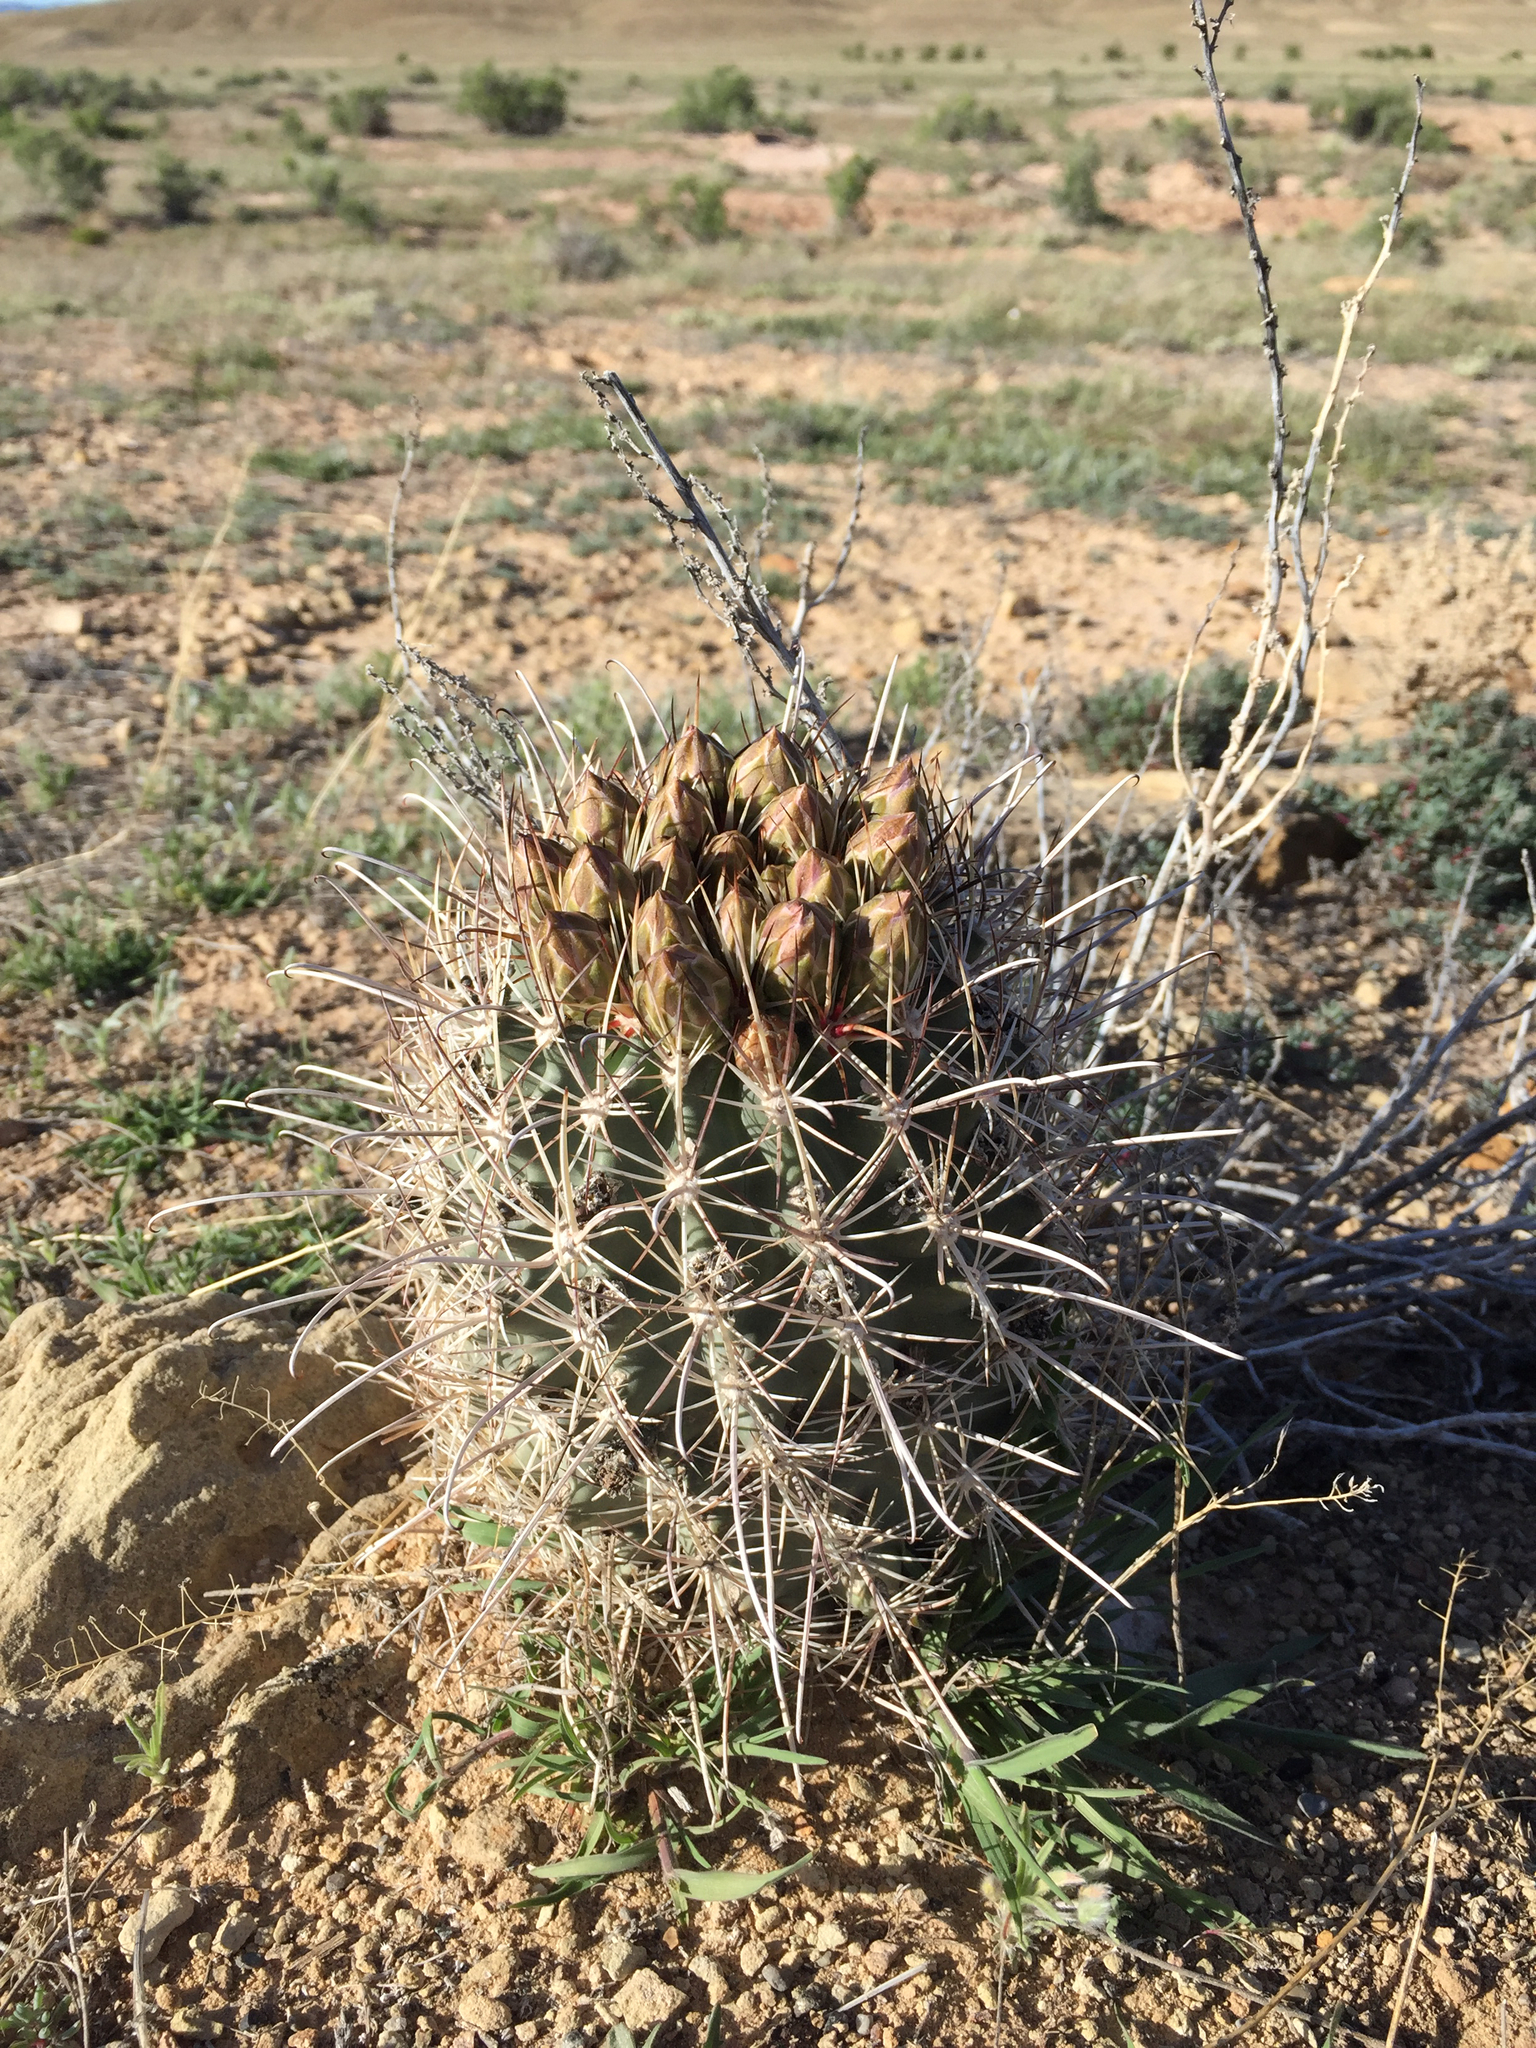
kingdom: Plantae
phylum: Tracheophyta
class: Magnoliopsida
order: Caryophyllales
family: Cactaceae
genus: Sclerocactus
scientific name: Sclerocactus parviflorus
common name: Small-flower fishhook cactus
